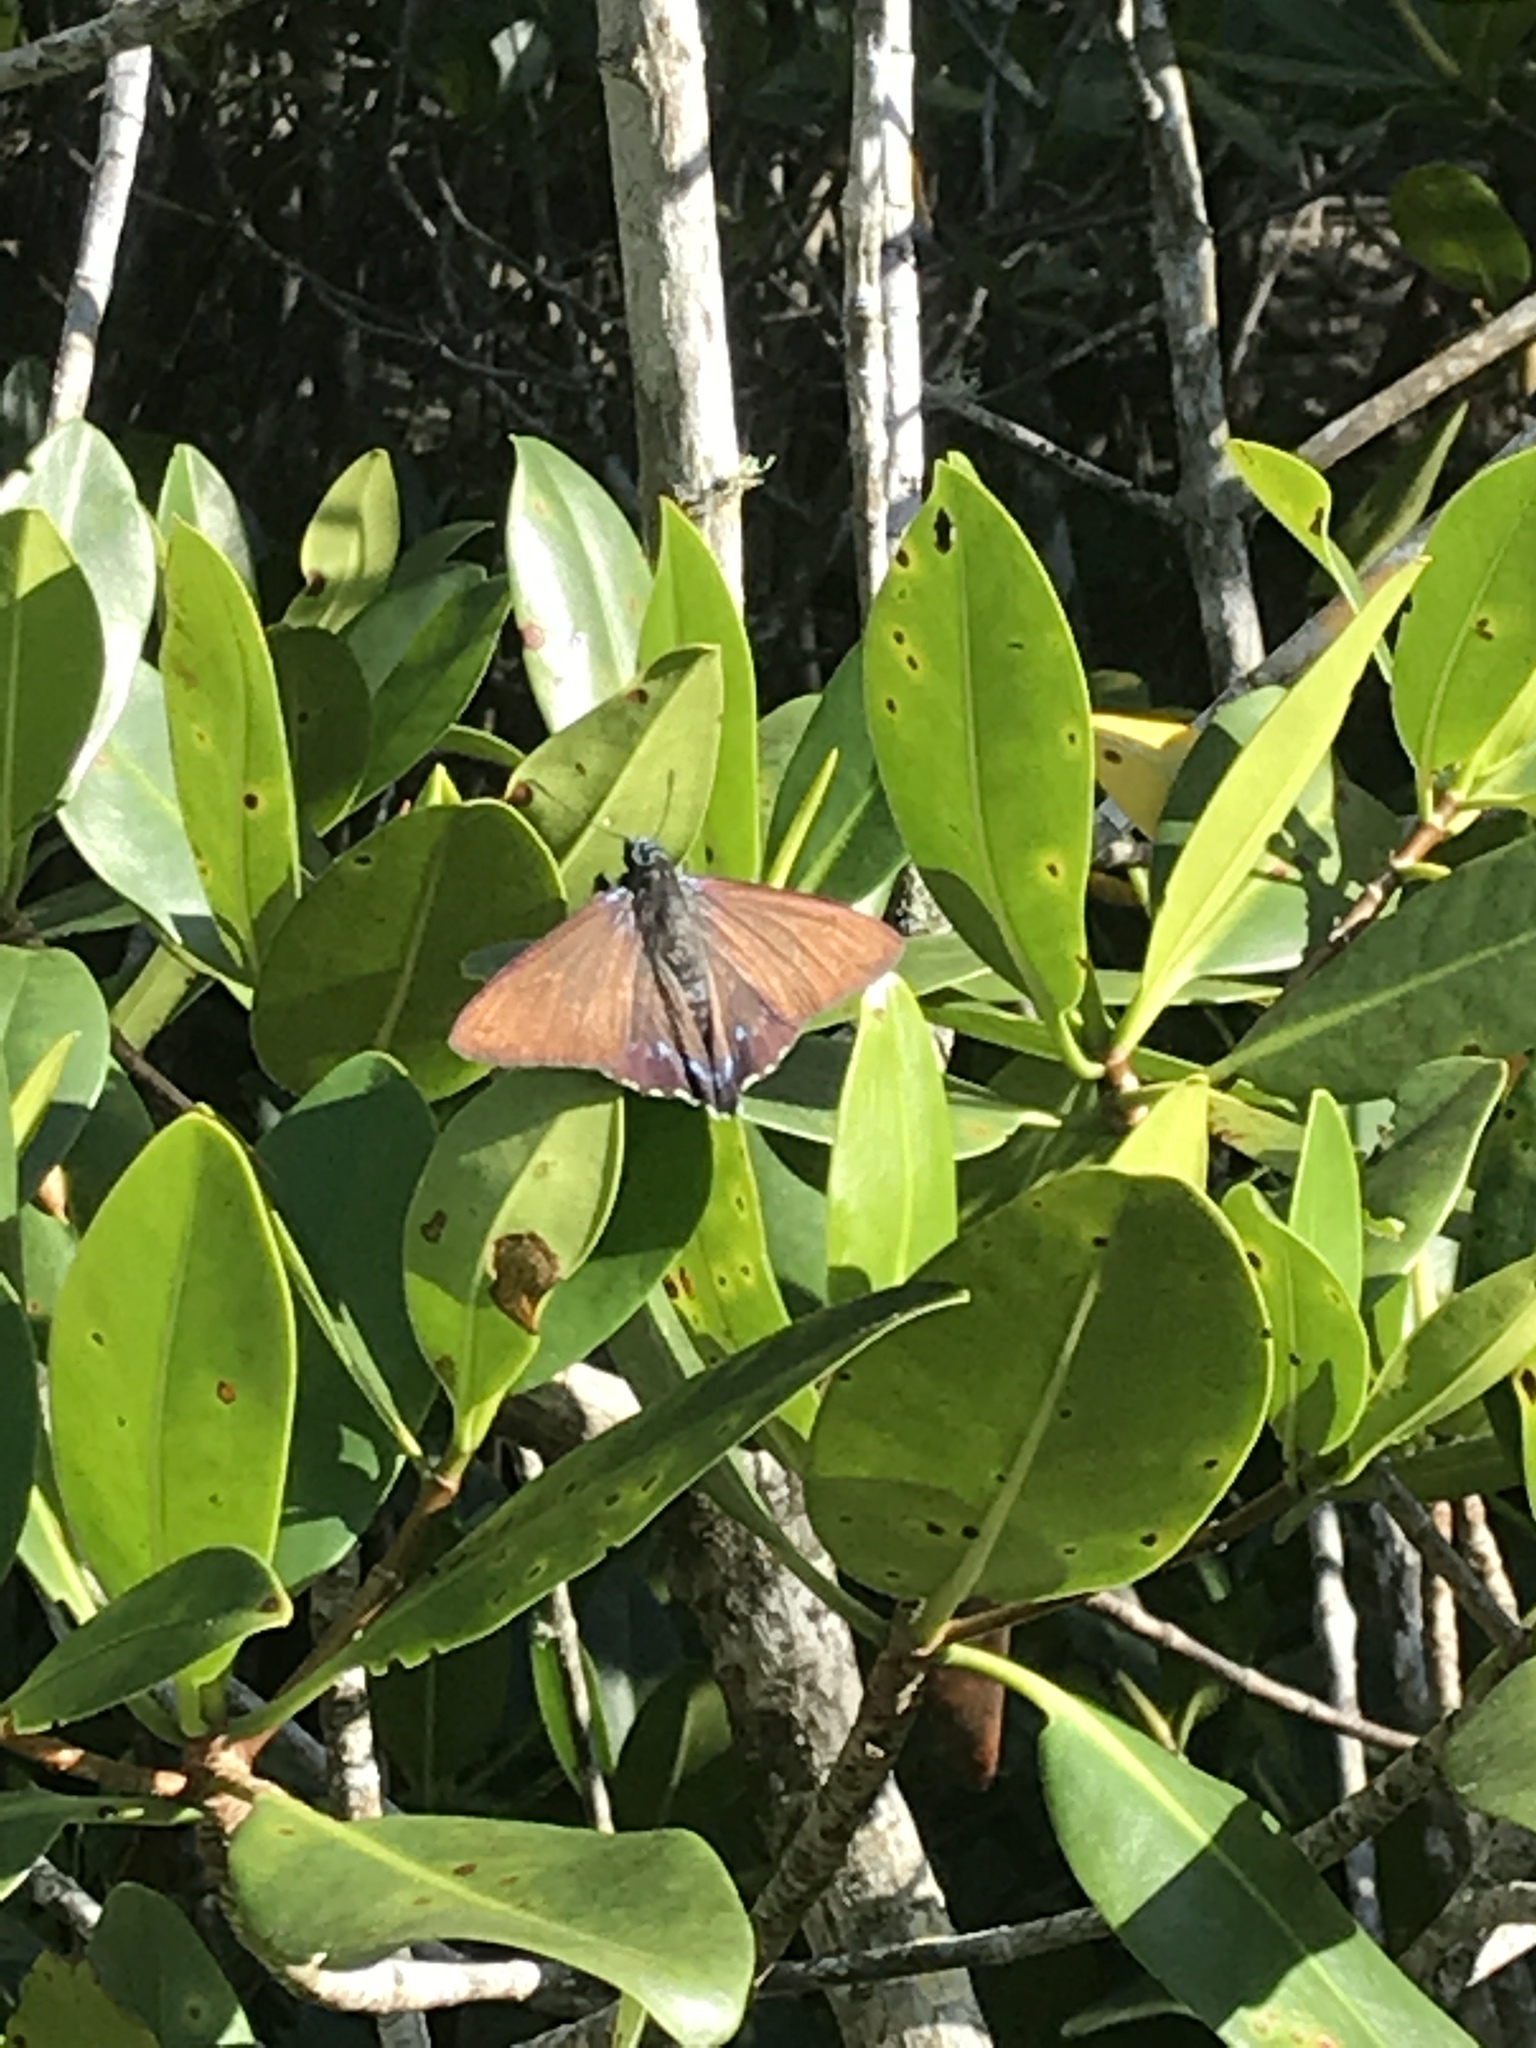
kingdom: Animalia
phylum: Arthropoda
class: Insecta
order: Lepidoptera
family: Hesperiidae
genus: Phocides
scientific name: Phocides pigmalion
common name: Mangrove skipper
